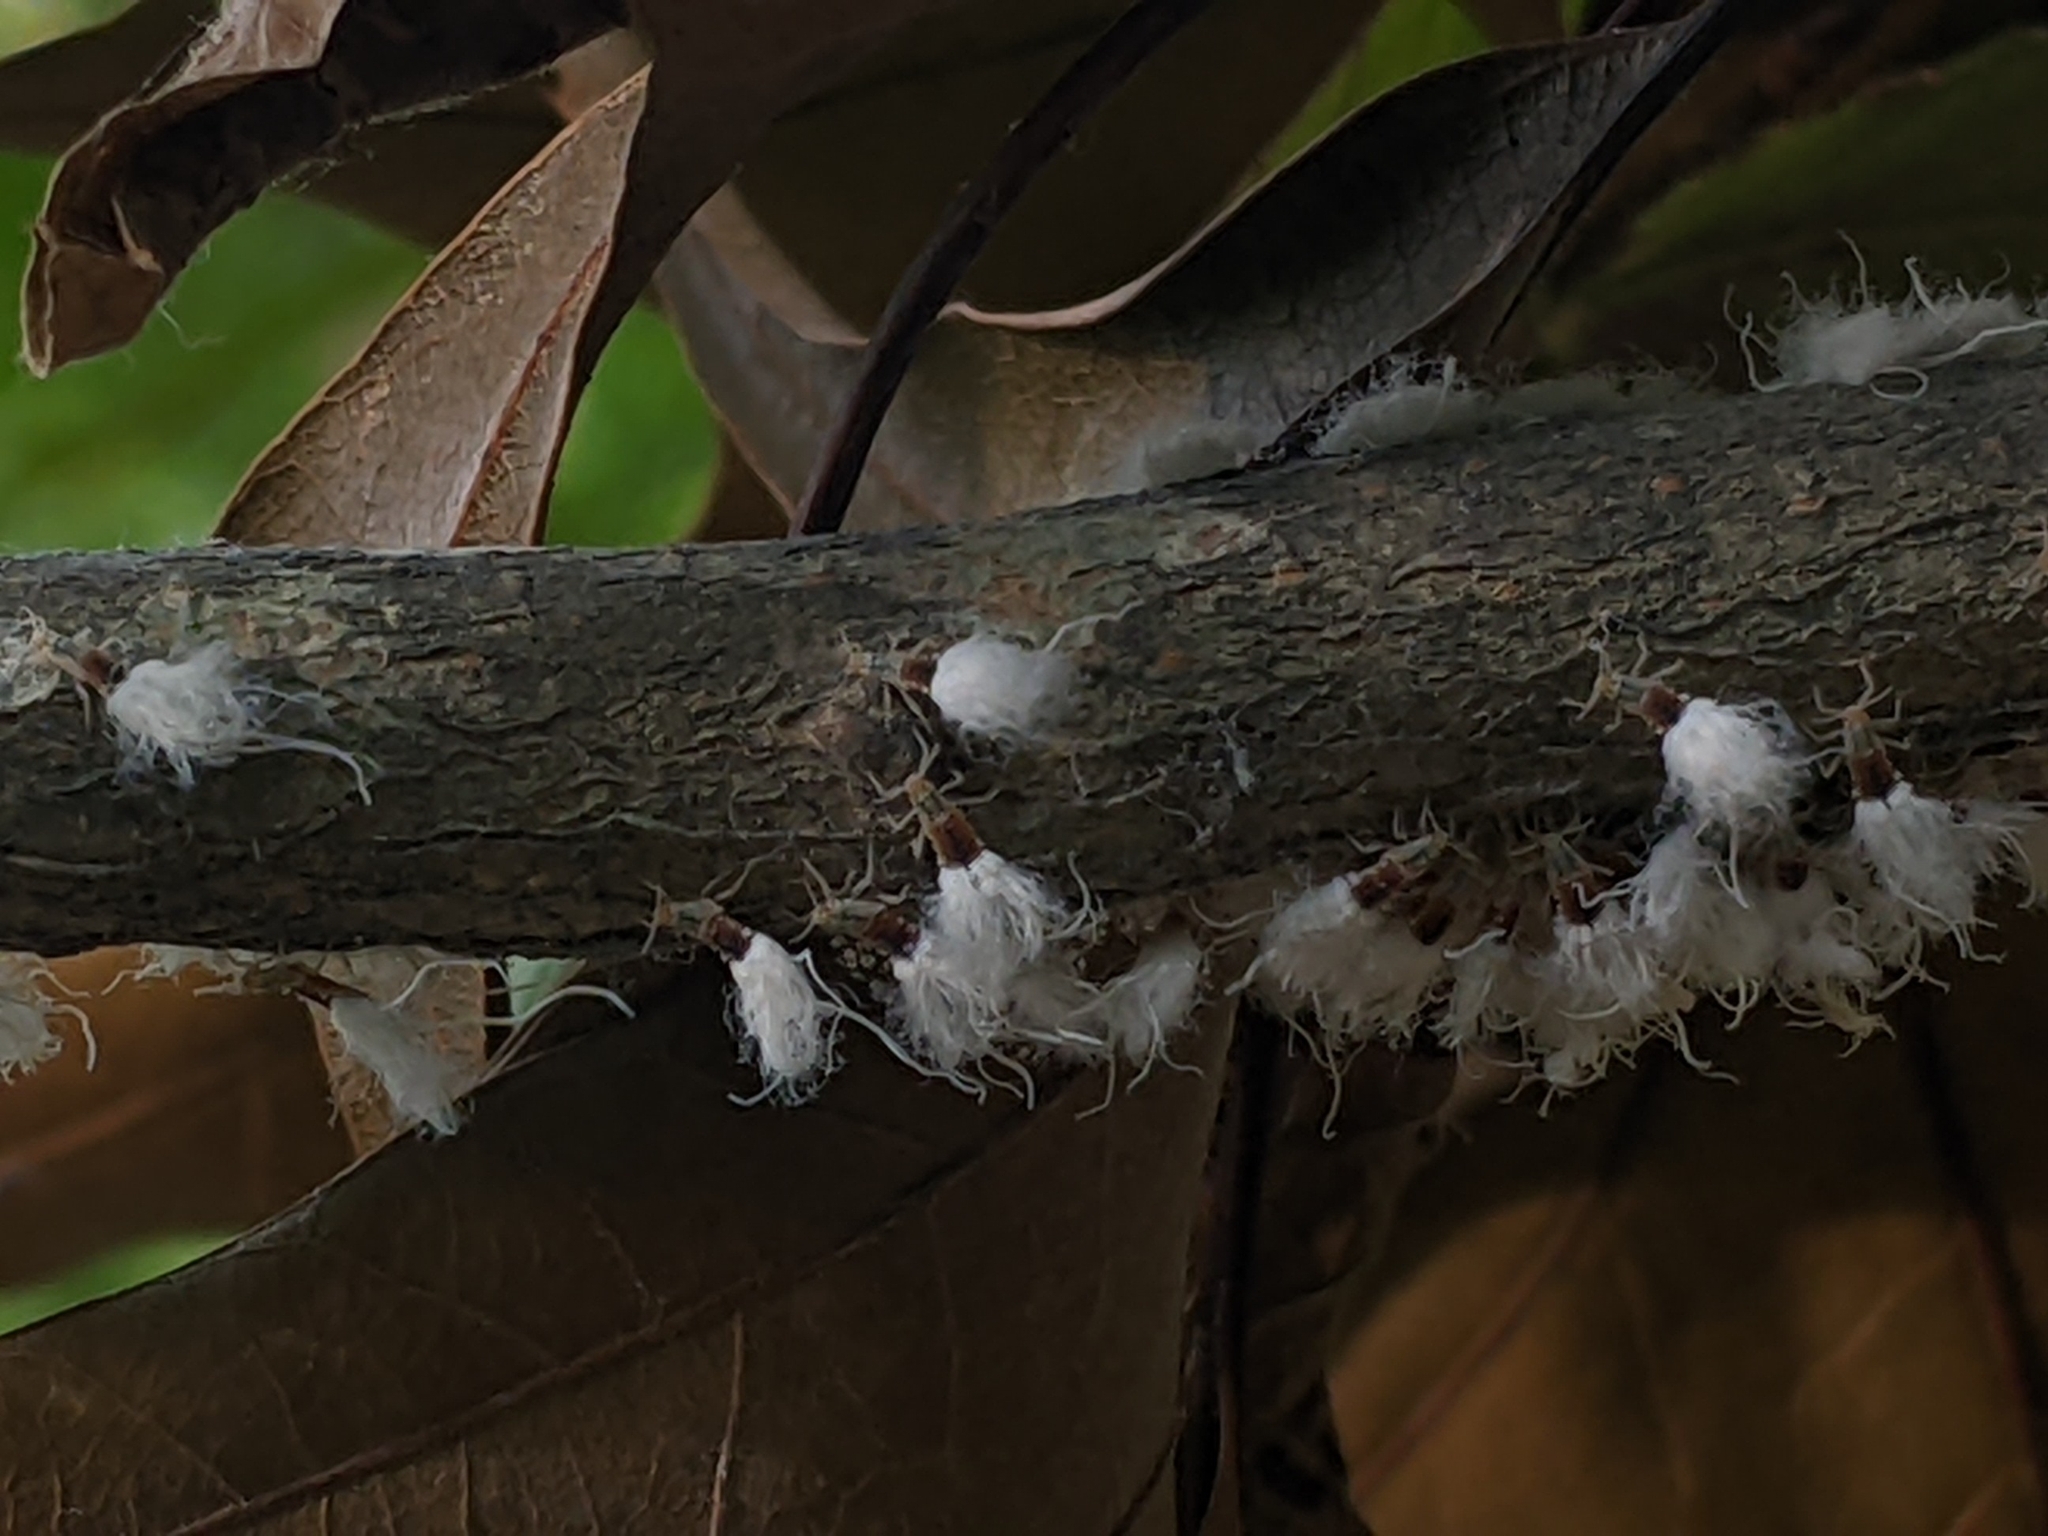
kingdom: Animalia
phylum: Arthropoda
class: Insecta
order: Hemiptera
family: Aphididae
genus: Grylloprociphilus
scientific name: Grylloprociphilus imbricator
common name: Beech blight aphid
